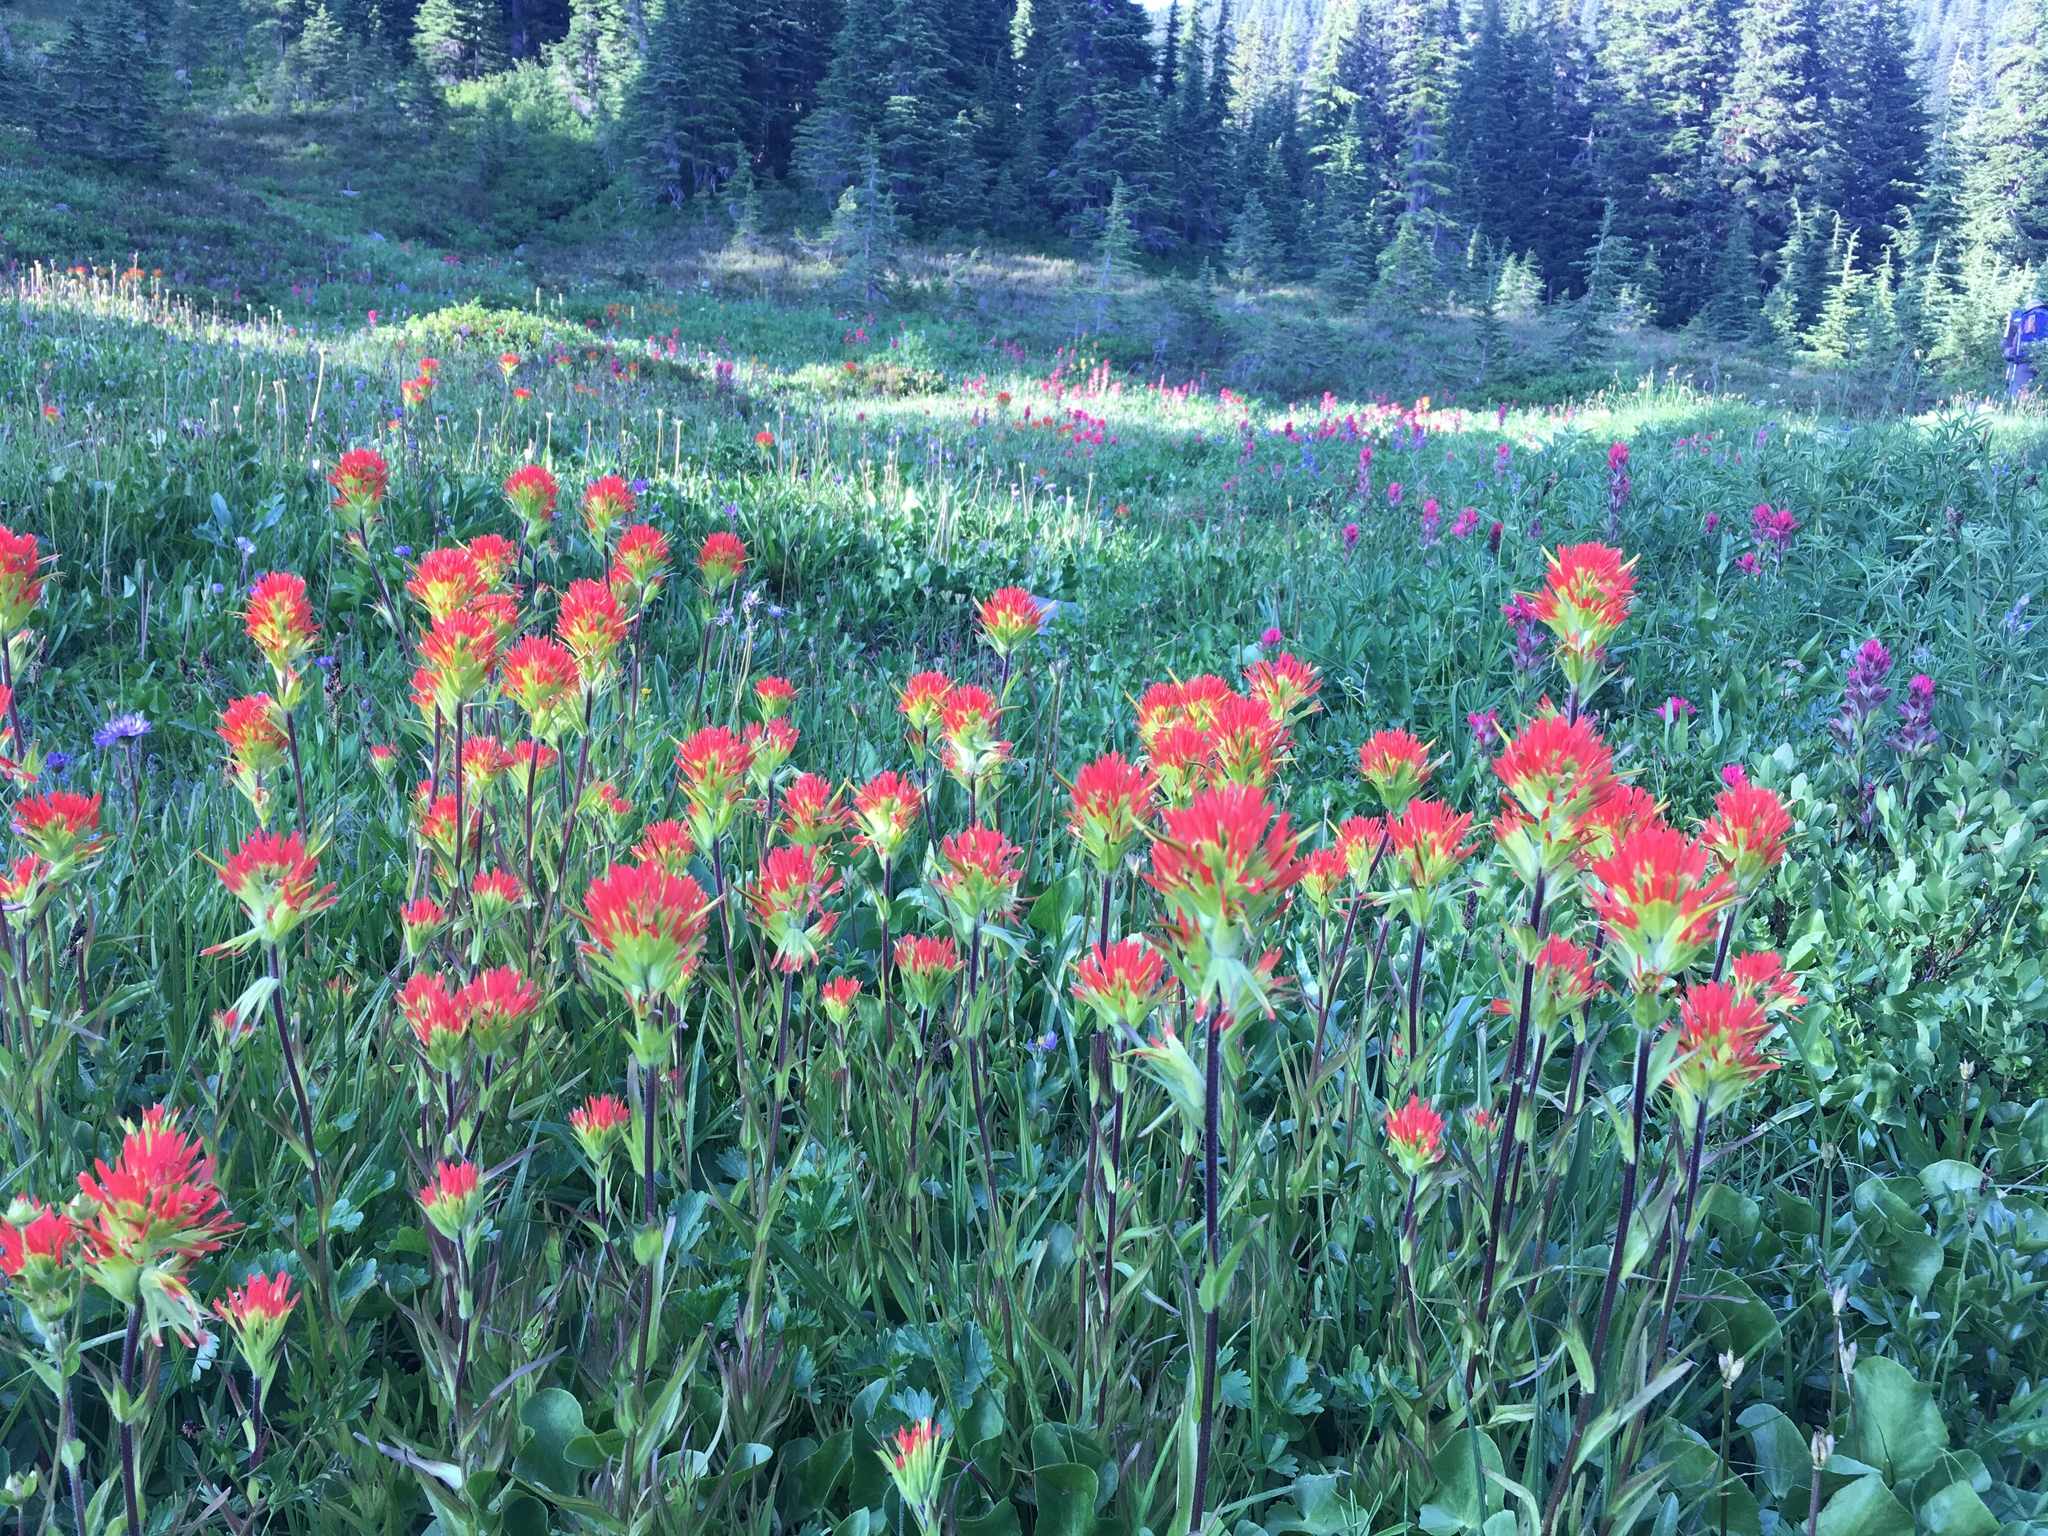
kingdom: Plantae
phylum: Tracheophyta
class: Magnoliopsida
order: Lamiales
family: Orobanchaceae
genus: Castilleja
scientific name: Castilleja suksdorfii
